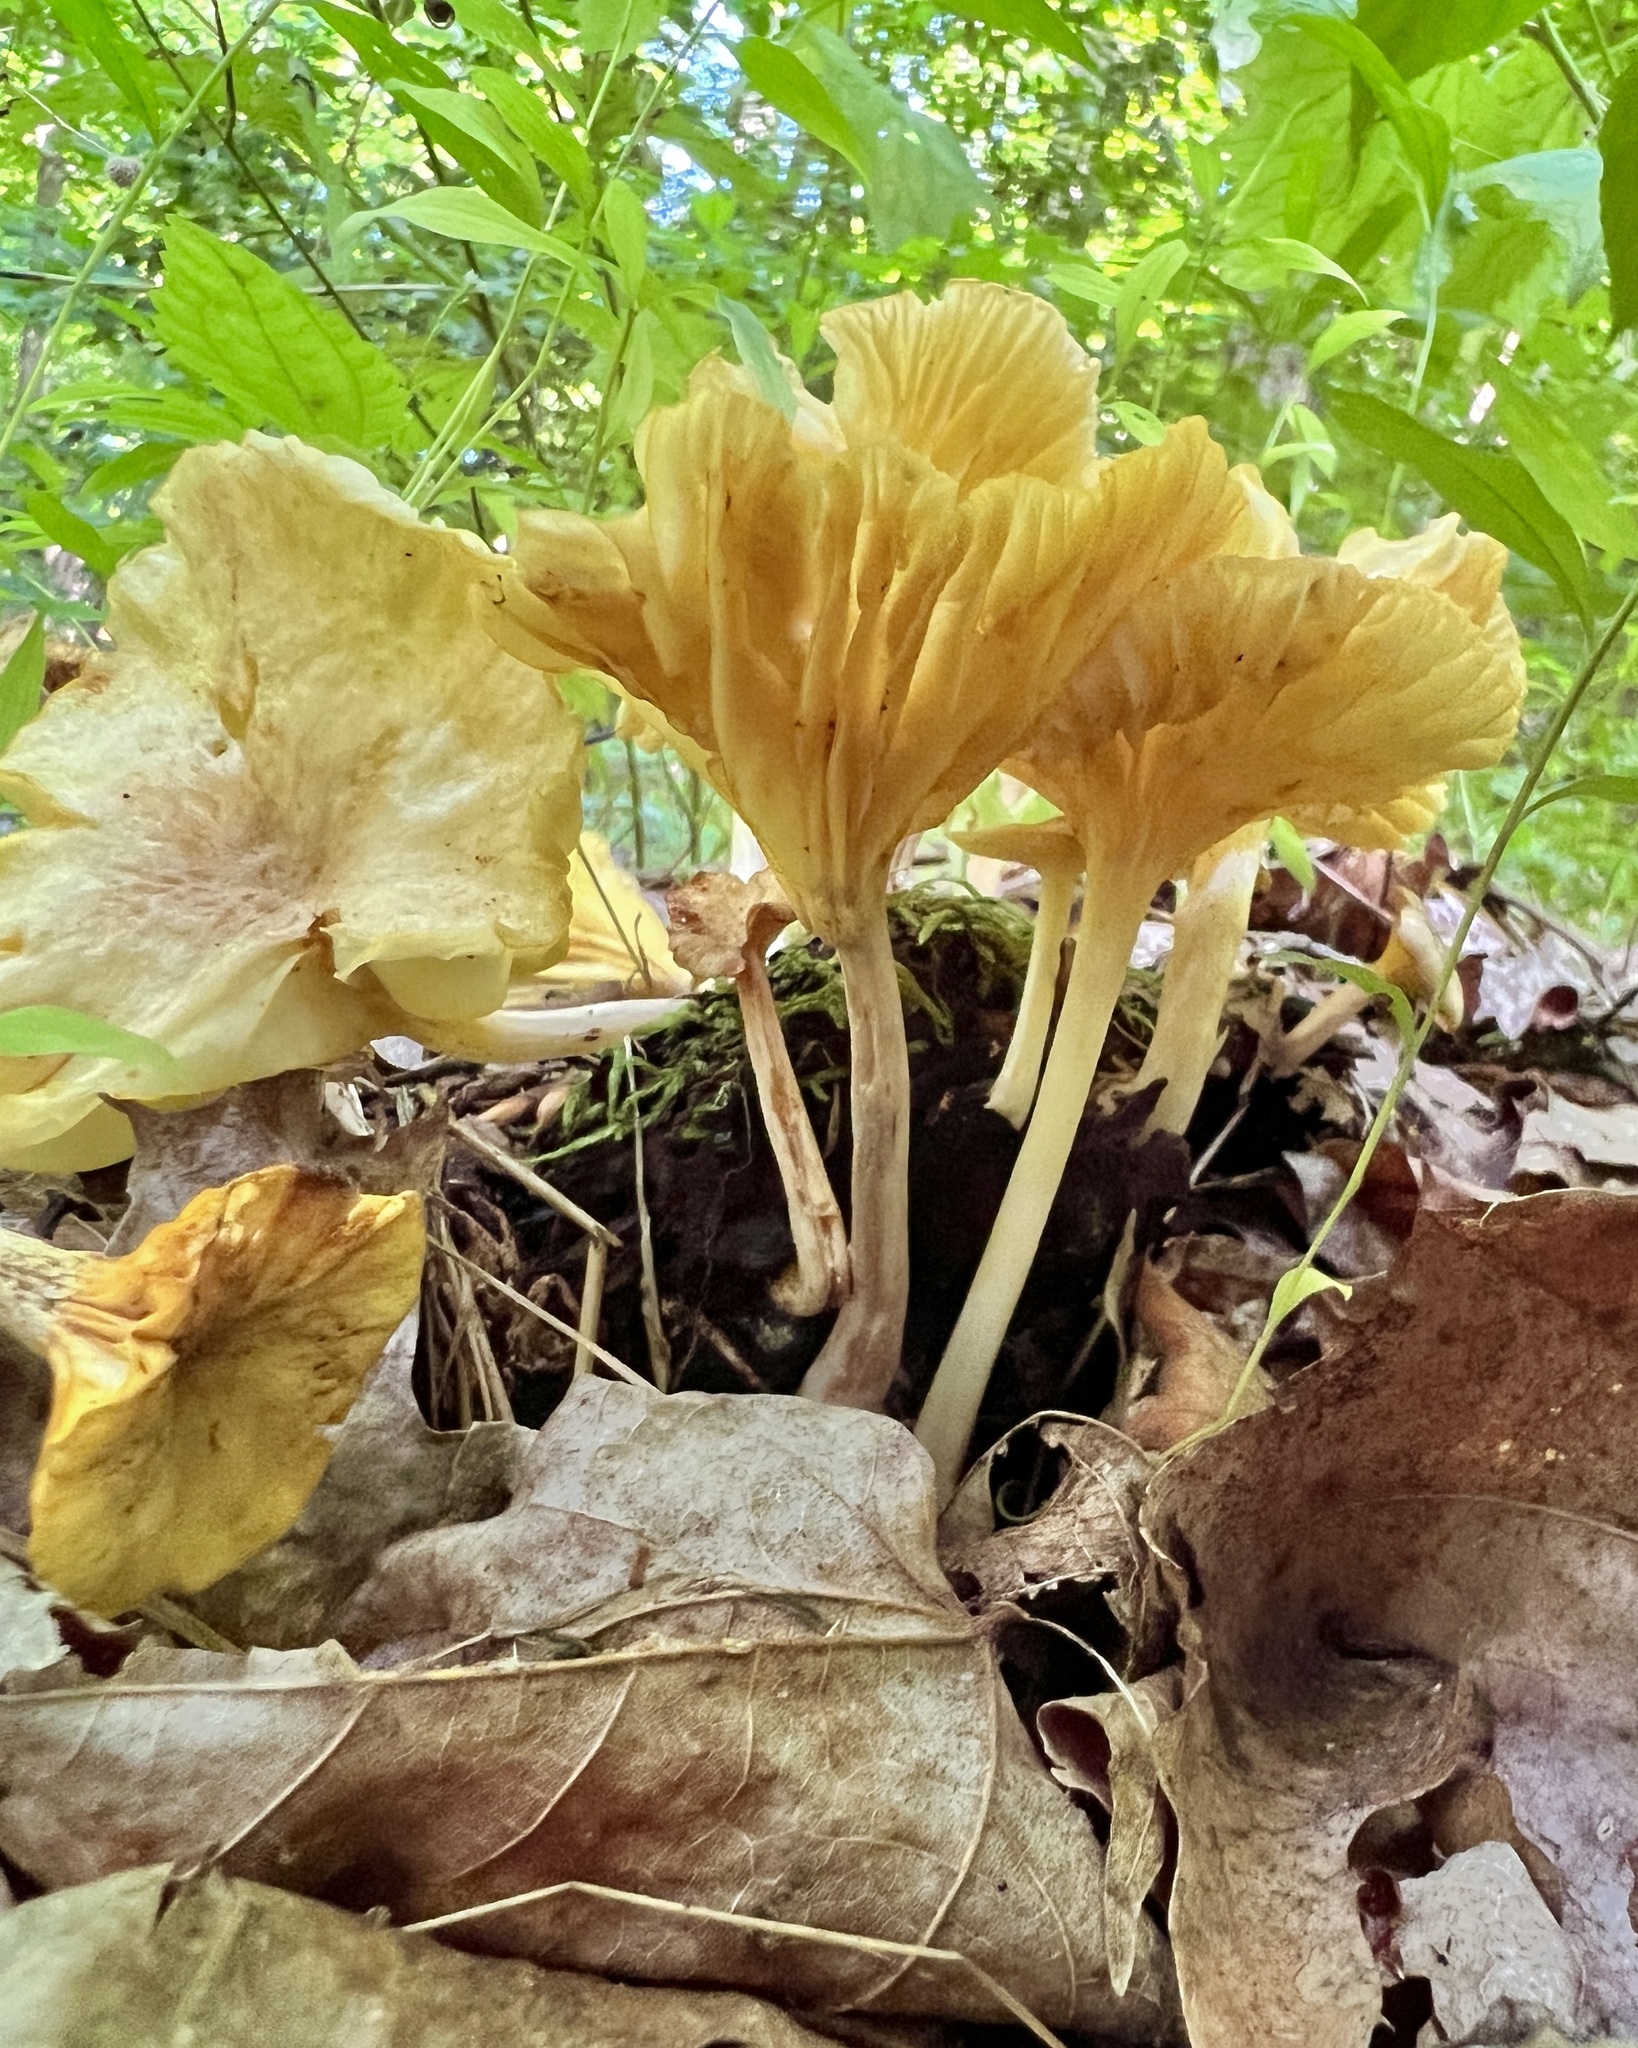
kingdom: Fungi
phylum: Basidiomycota
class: Agaricomycetes
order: Agaricales
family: Marasmiaceae
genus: Gerronema
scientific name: Gerronema strombodes
